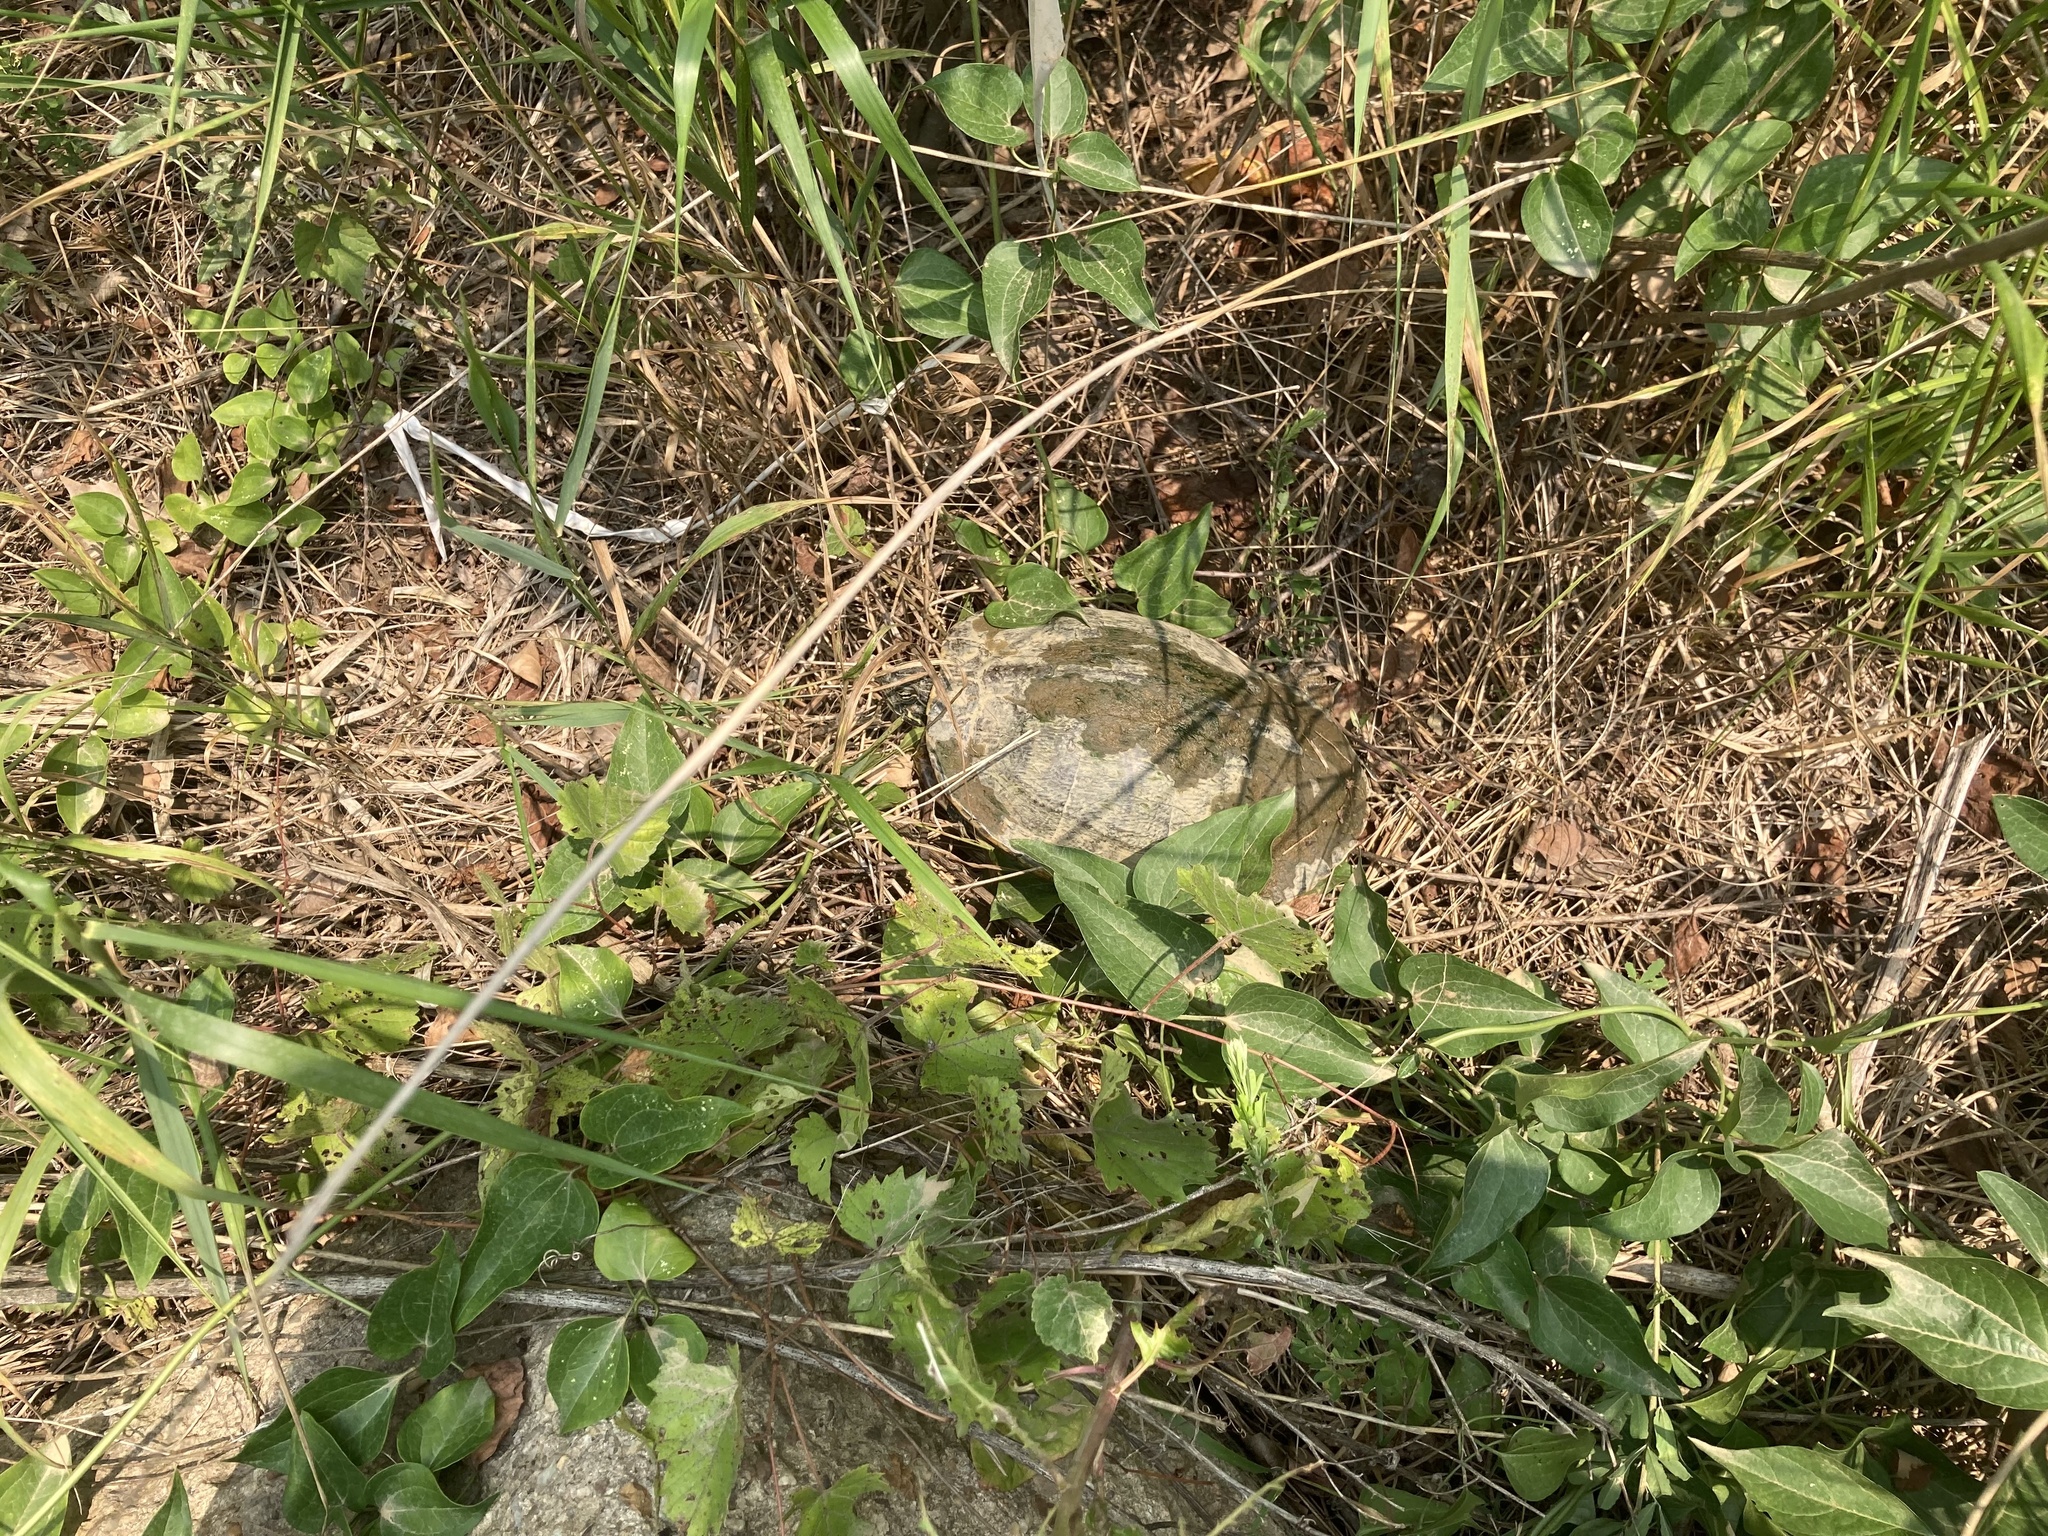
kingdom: Animalia
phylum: Chordata
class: Testudines
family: Emydidae
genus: Trachemys
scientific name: Trachemys scripta
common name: Slider
